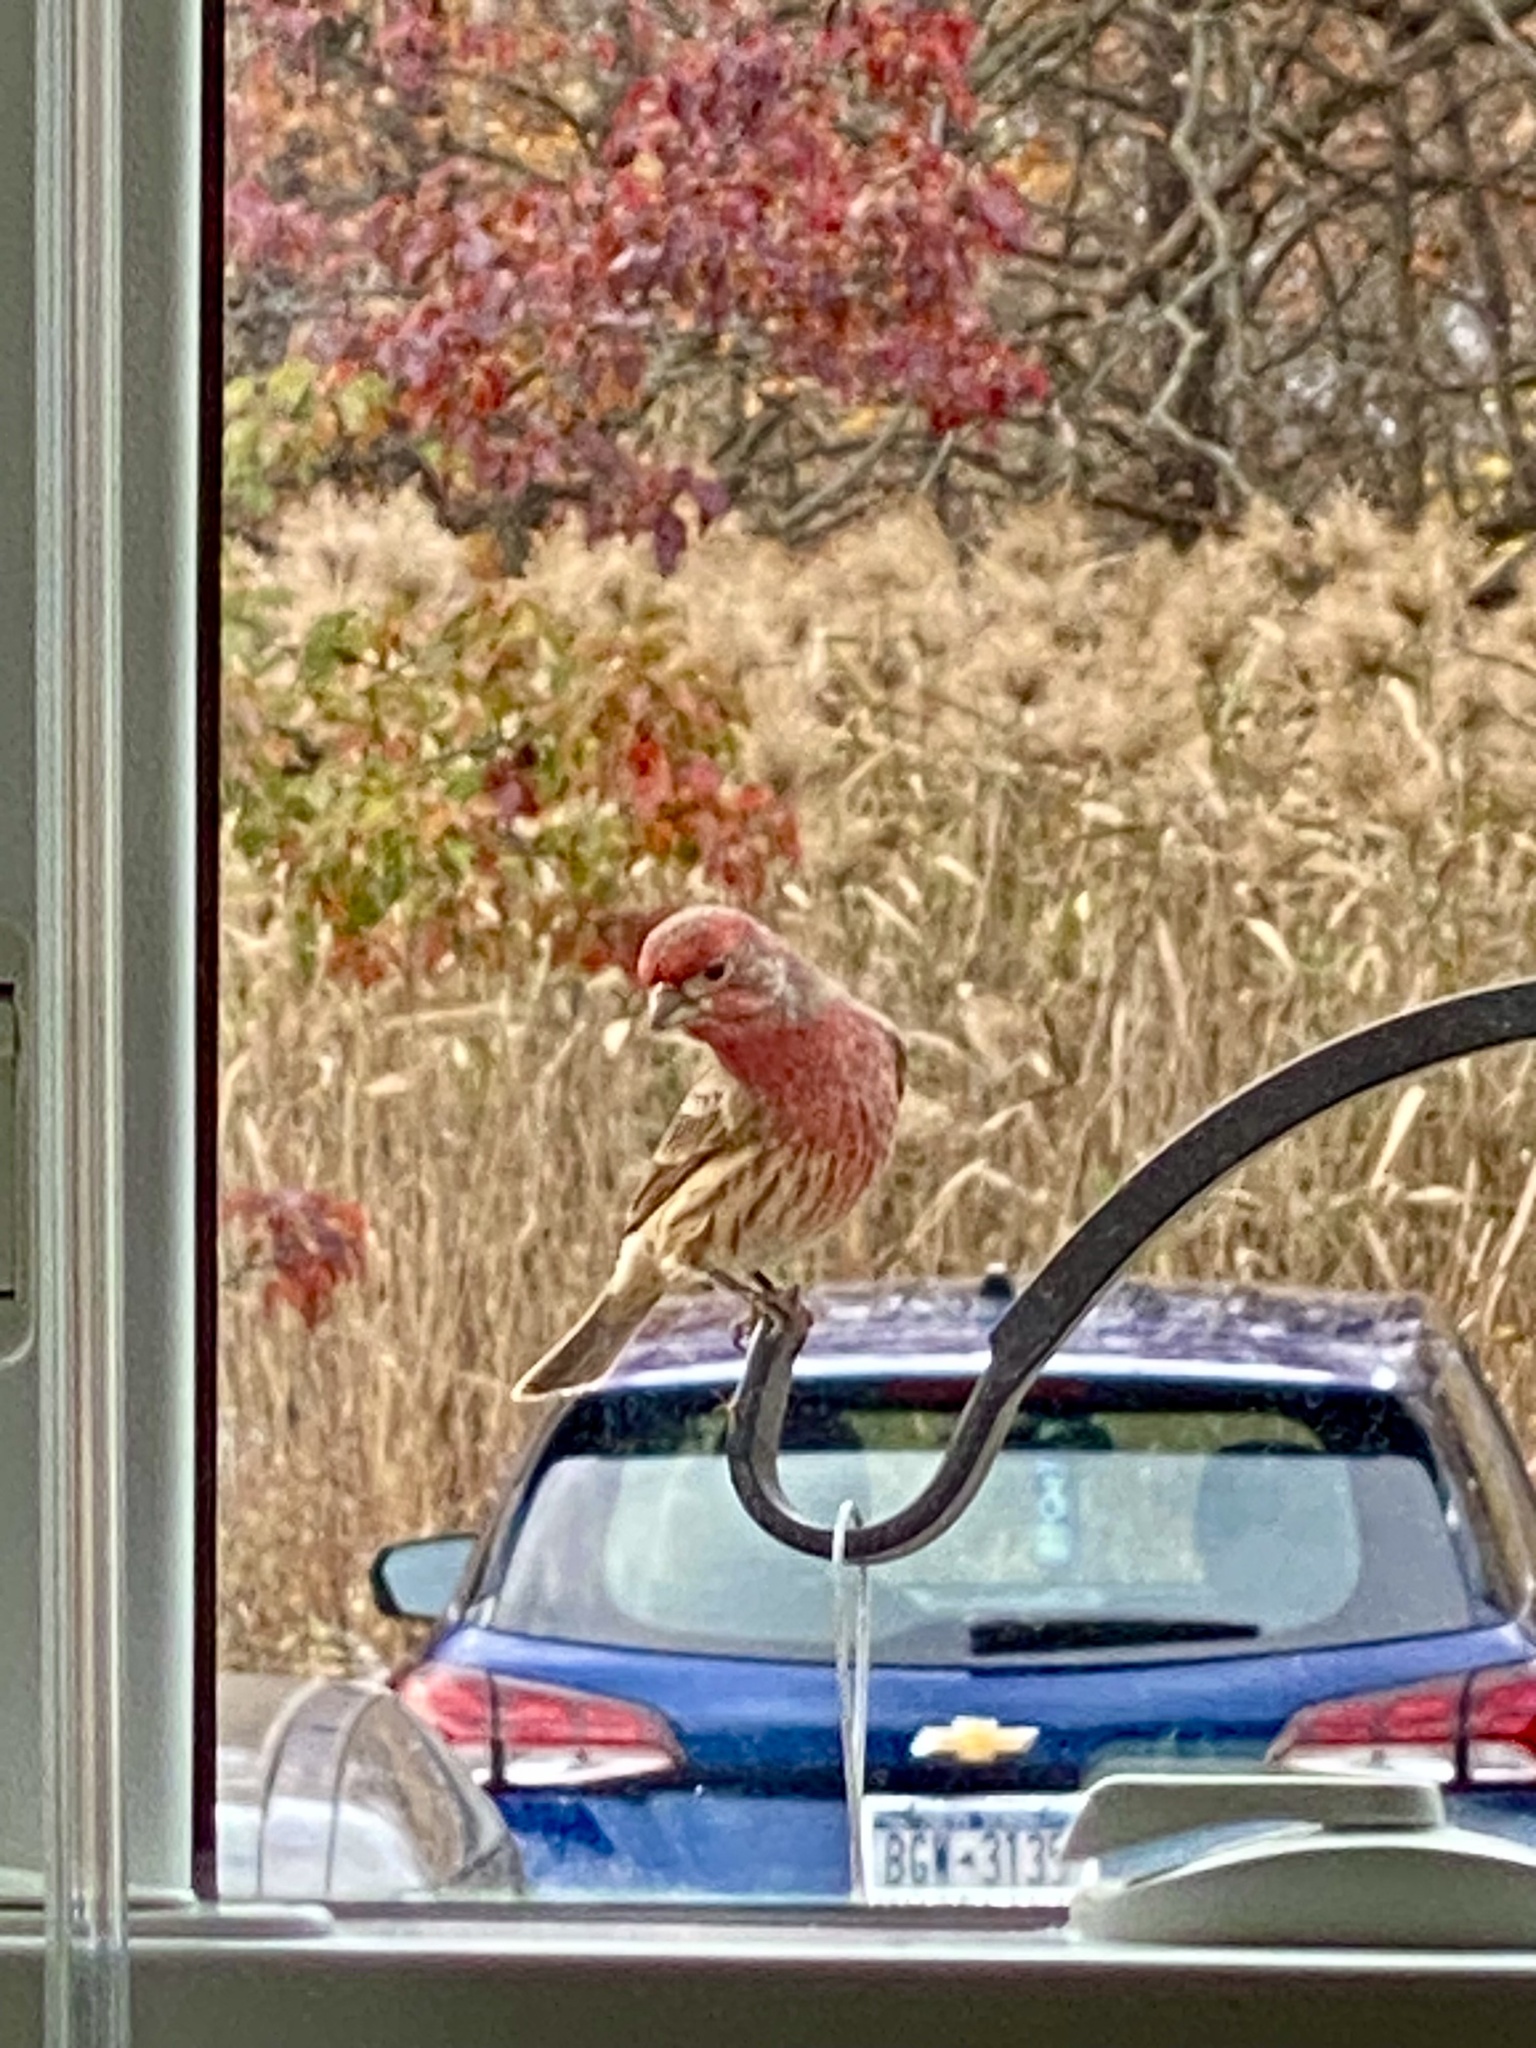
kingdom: Animalia
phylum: Chordata
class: Aves
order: Passeriformes
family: Fringillidae
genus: Haemorhous
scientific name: Haemorhous mexicanus
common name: House finch
